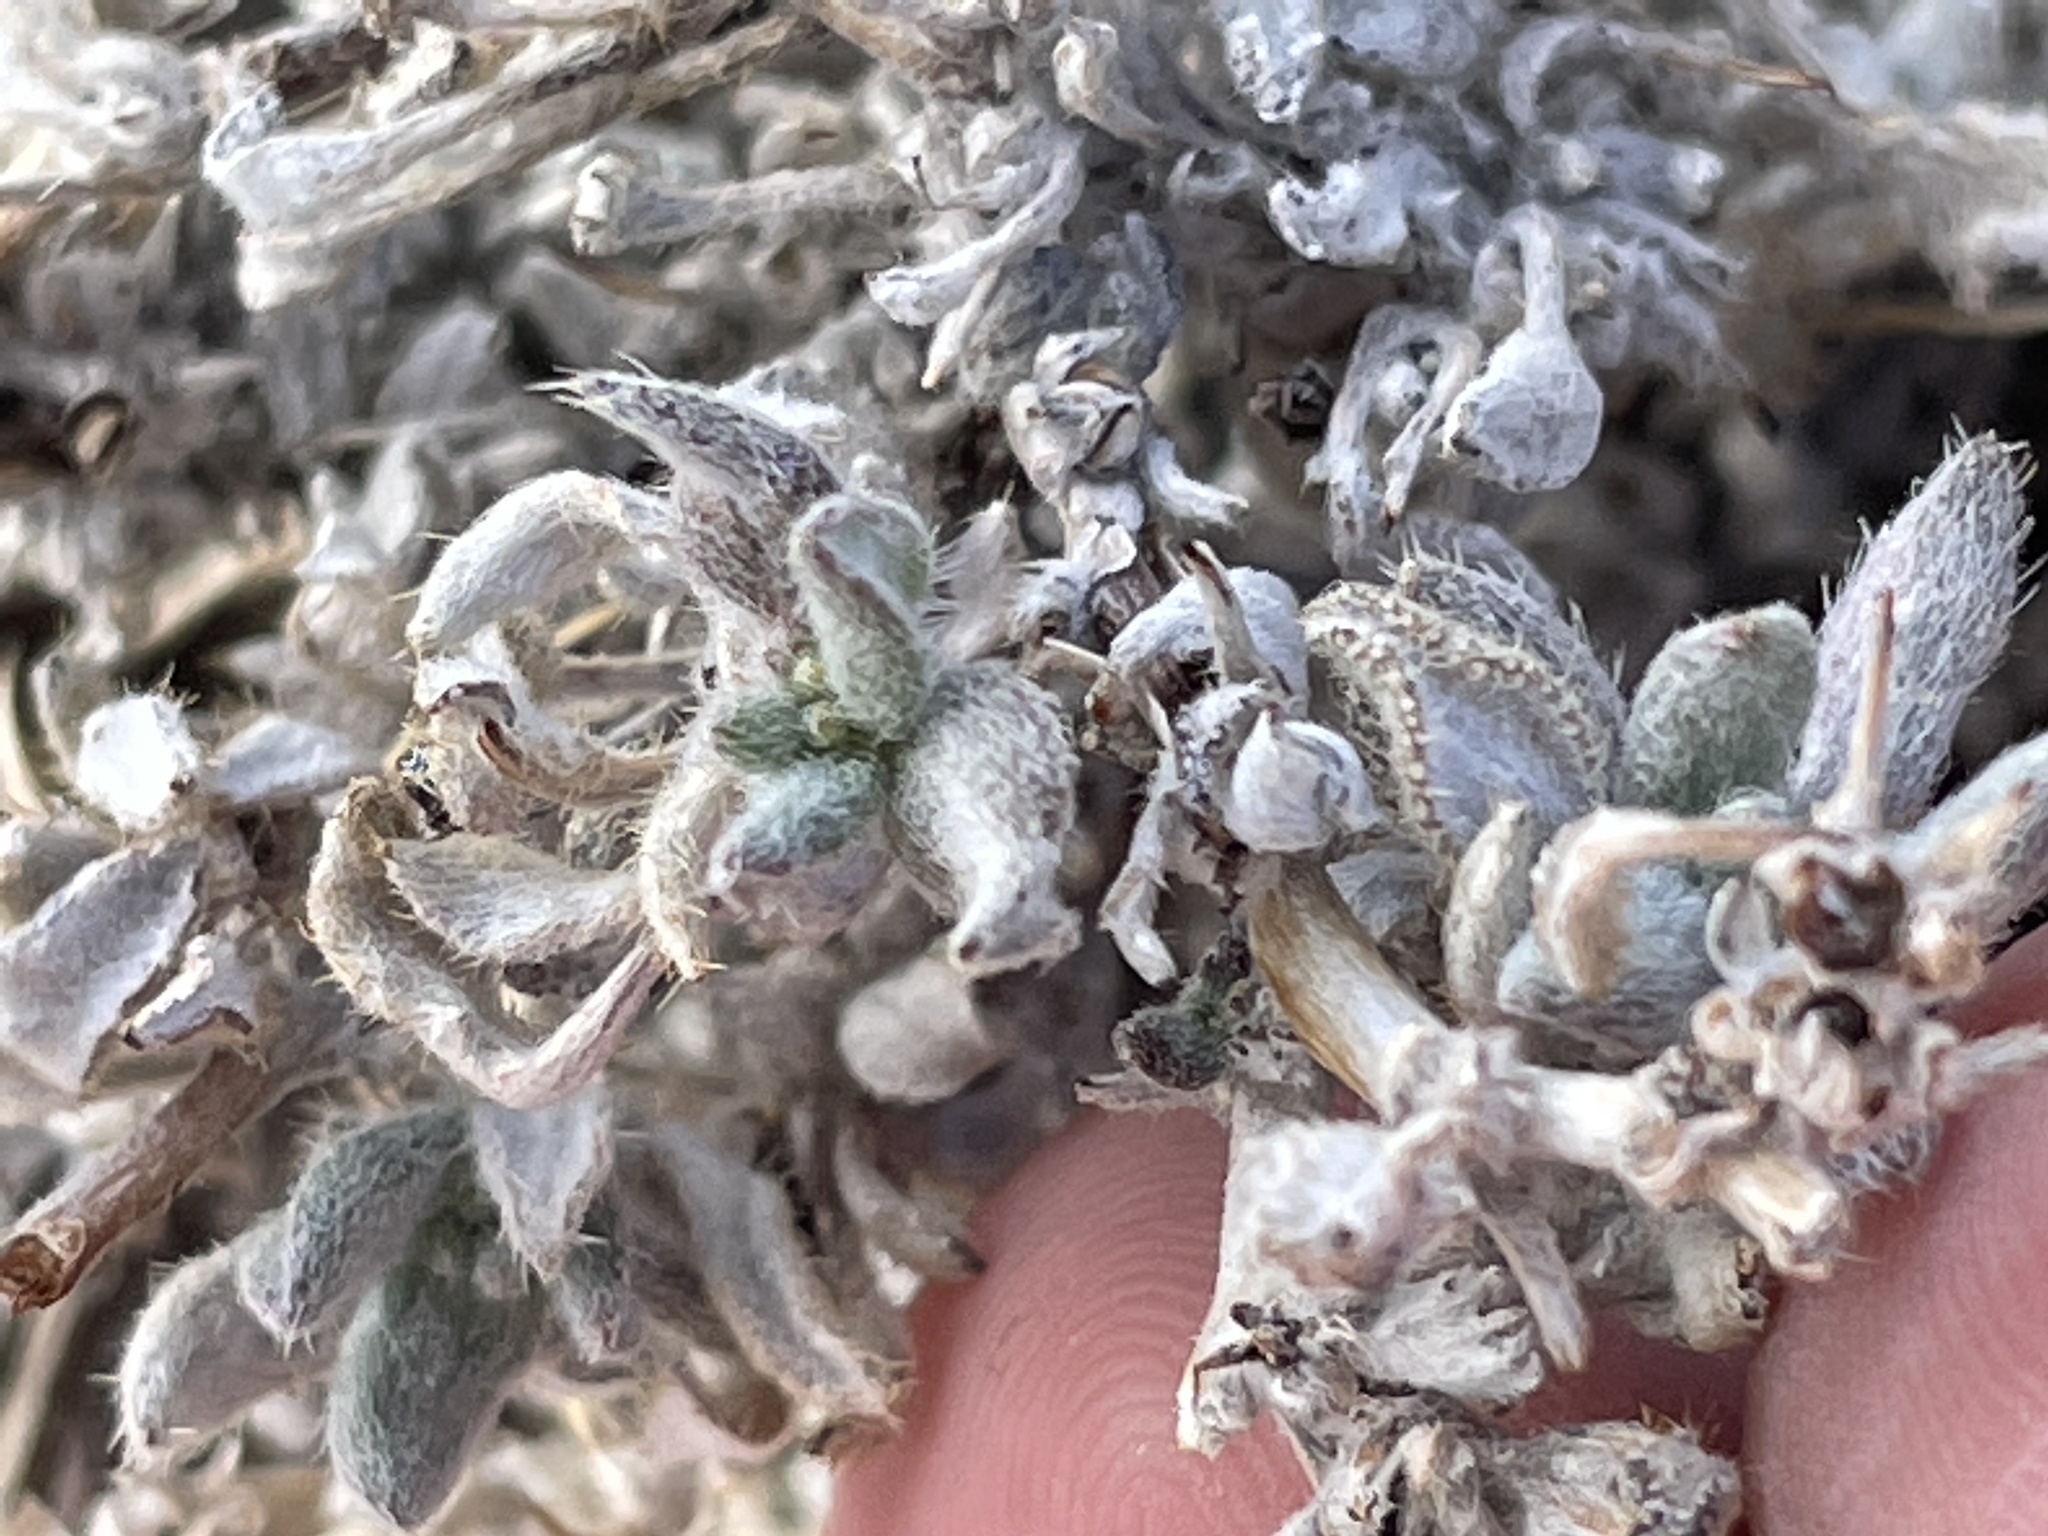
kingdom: Plantae
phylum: Tracheophyta
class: Magnoliopsida
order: Boraginales
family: Ehretiaceae
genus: Tiquilia
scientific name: Tiquilia canescens
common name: Hairy tiquilia
